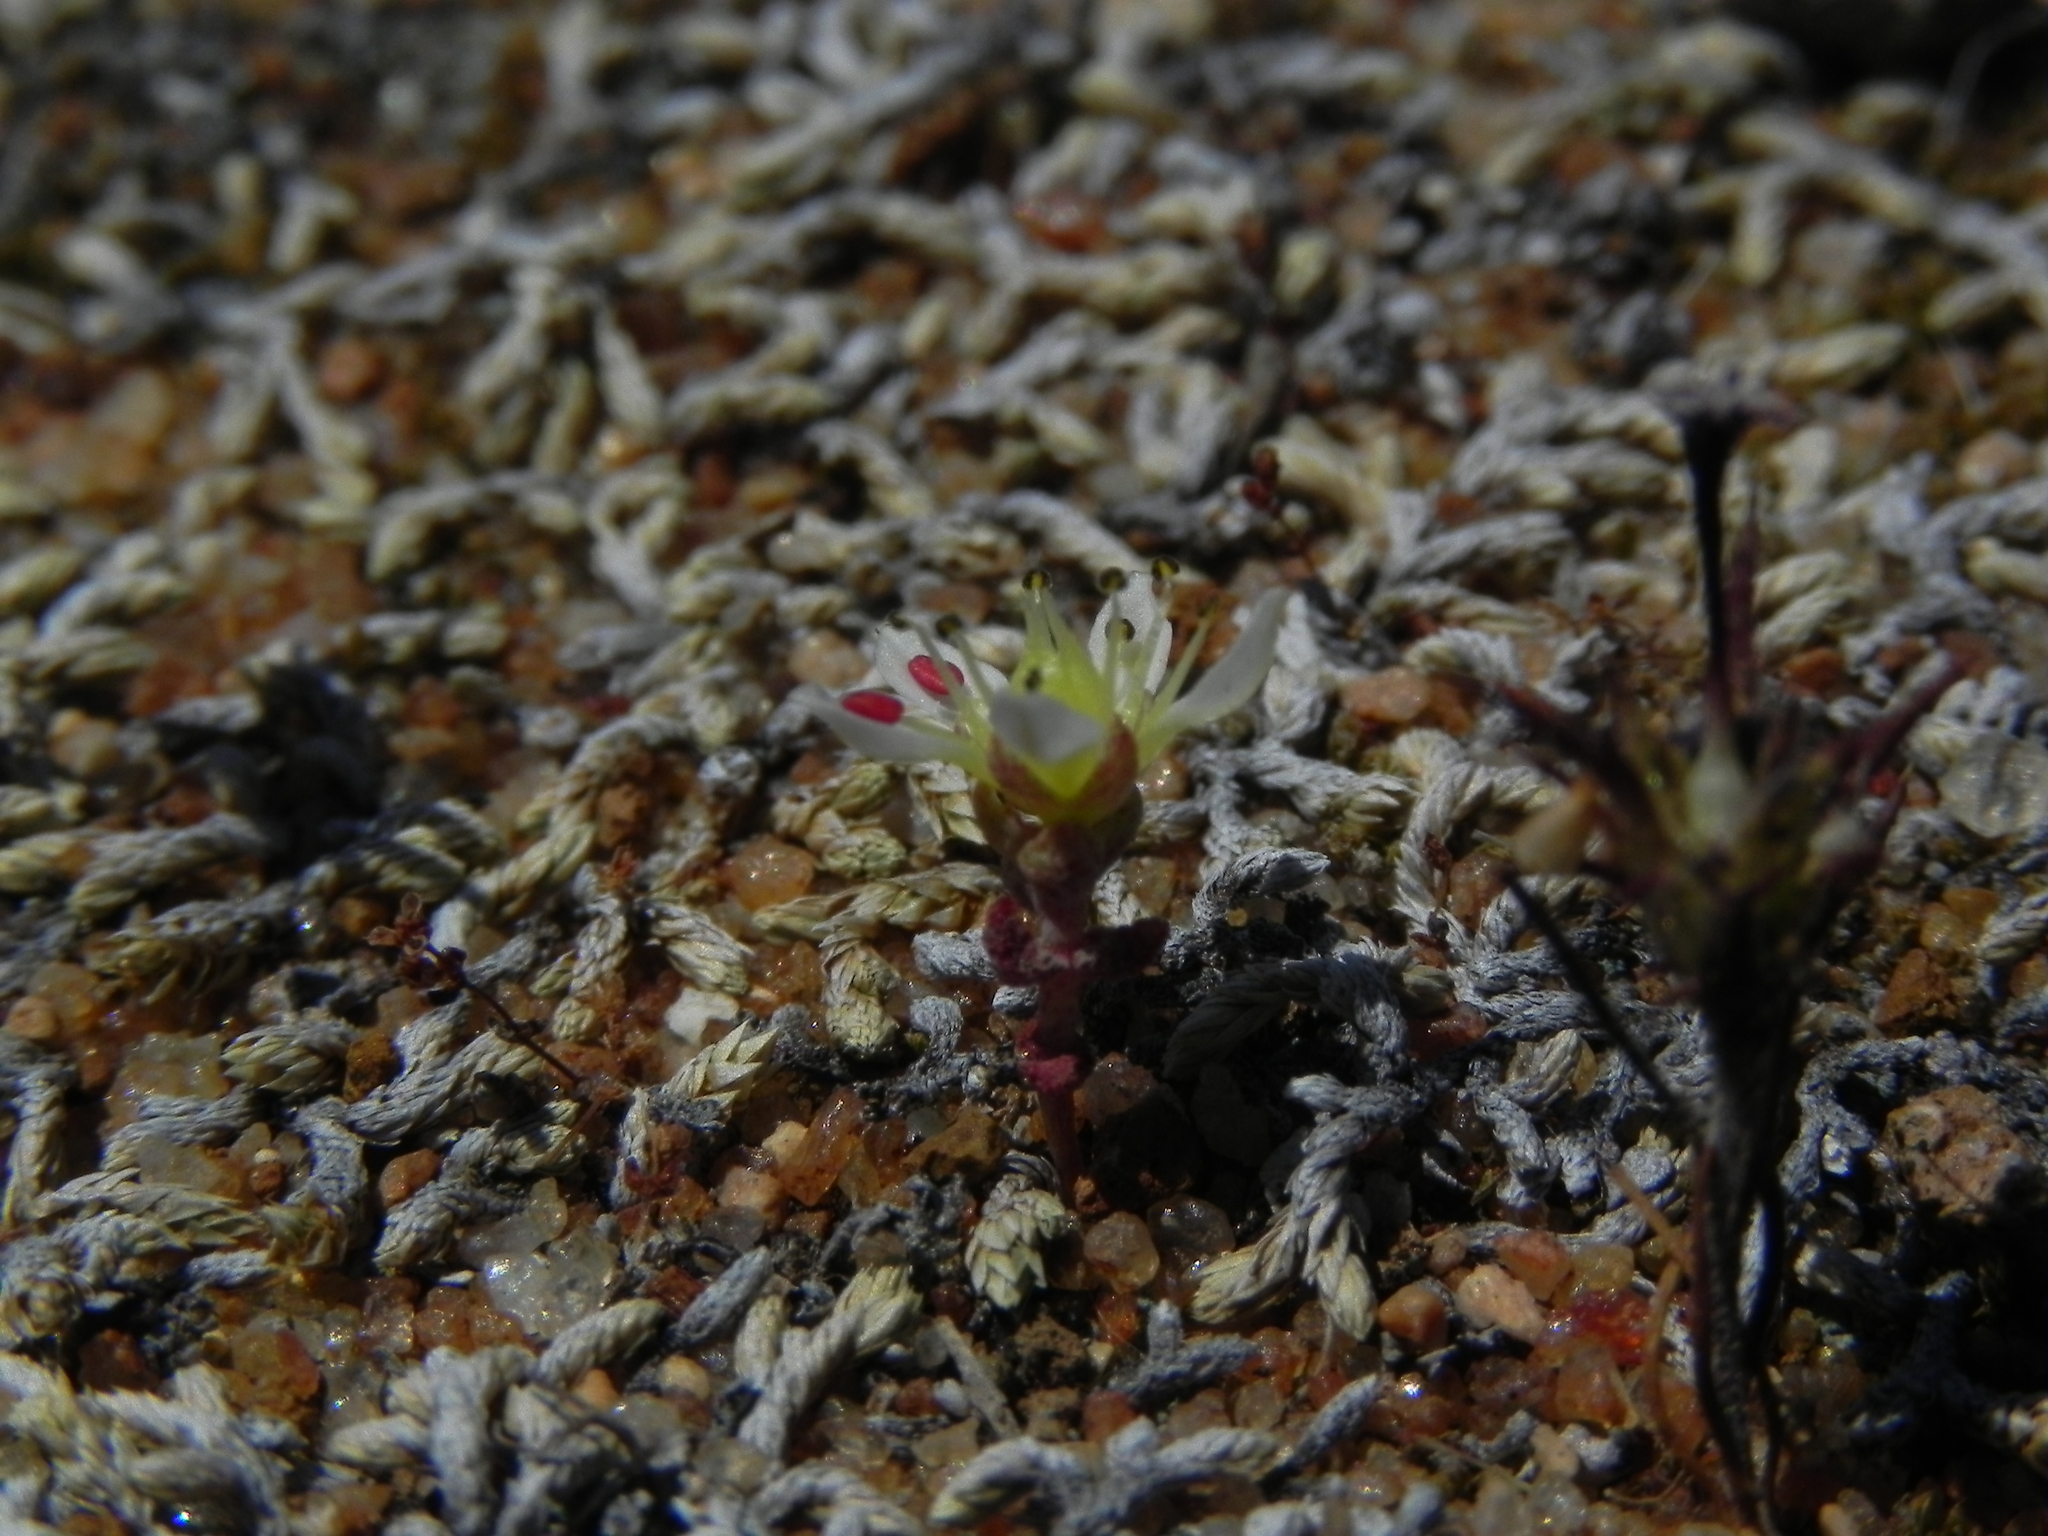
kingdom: Plantae
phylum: Tracheophyta
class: Magnoliopsida
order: Saxifragales
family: Crassulaceae
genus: Dudleya
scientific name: Dudleya blochmaniae
